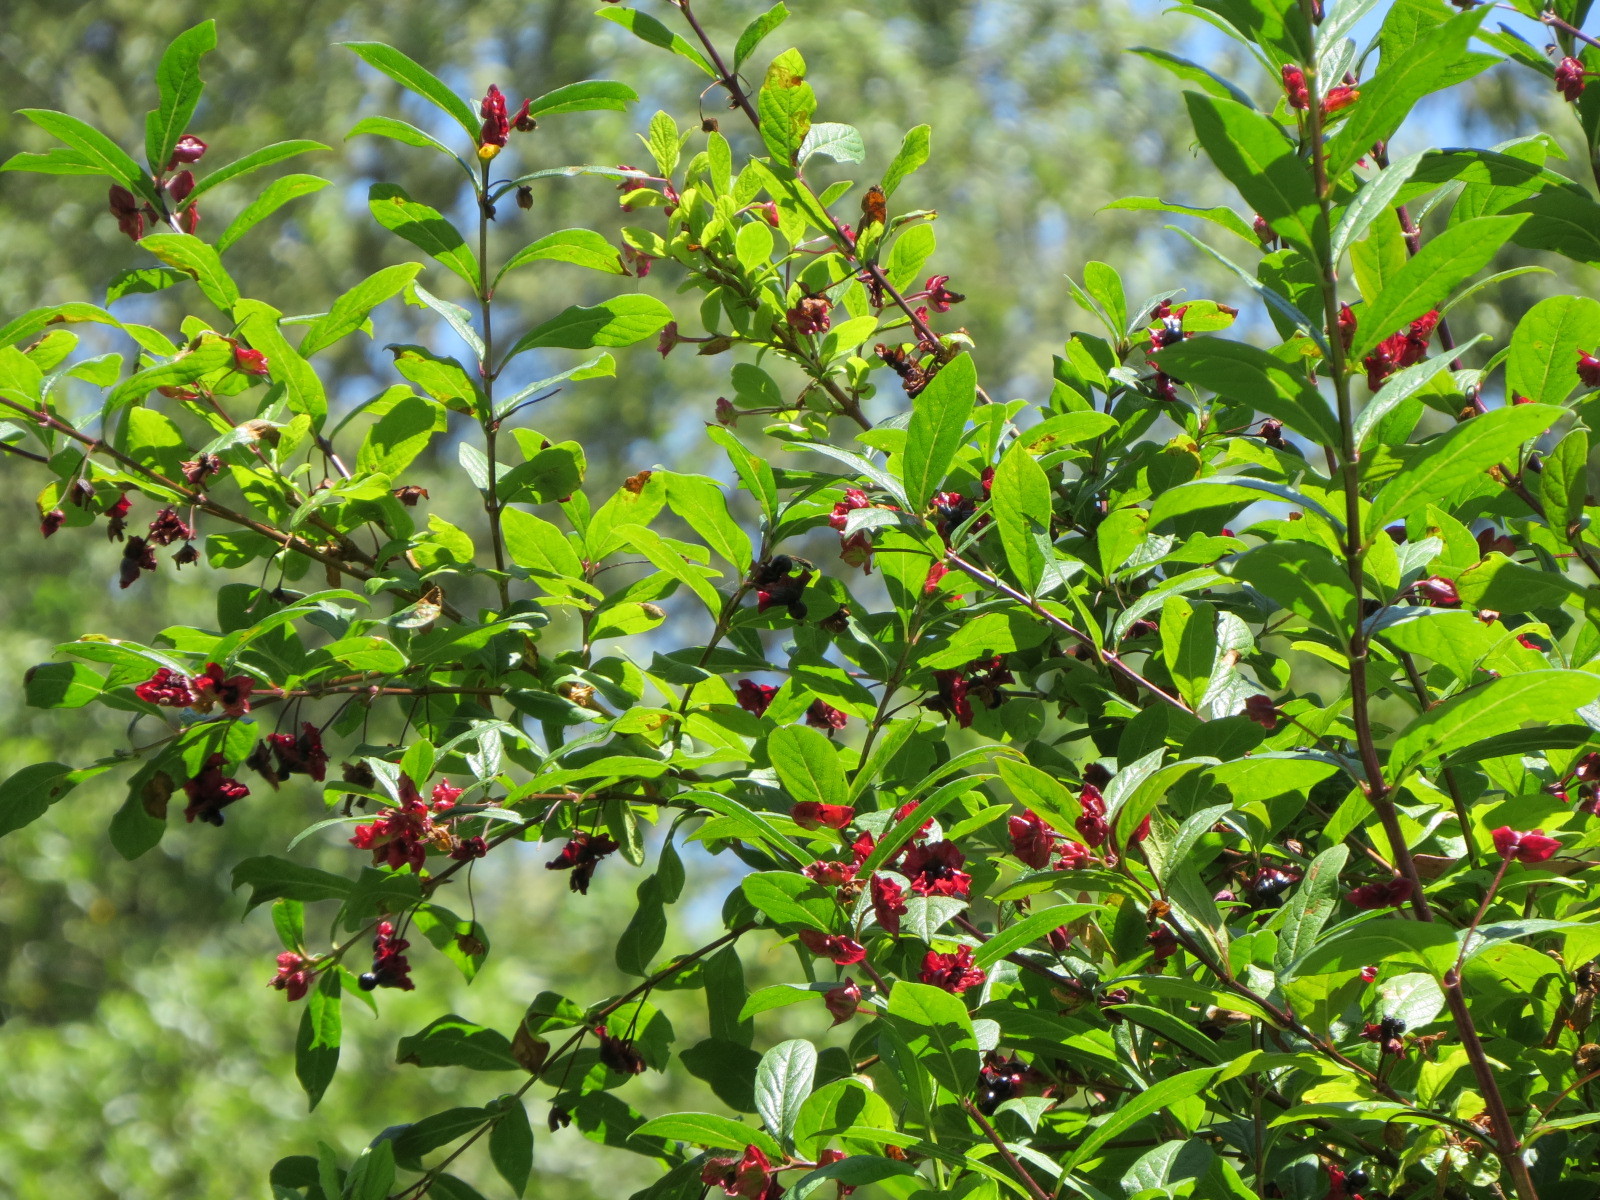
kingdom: Plantae
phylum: Tracheophyta
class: Magnoliopsida
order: Dipsacales
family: Caprifoliaceae
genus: Lonicera
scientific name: Lonicera involucrata
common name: Californian honeysuckle
